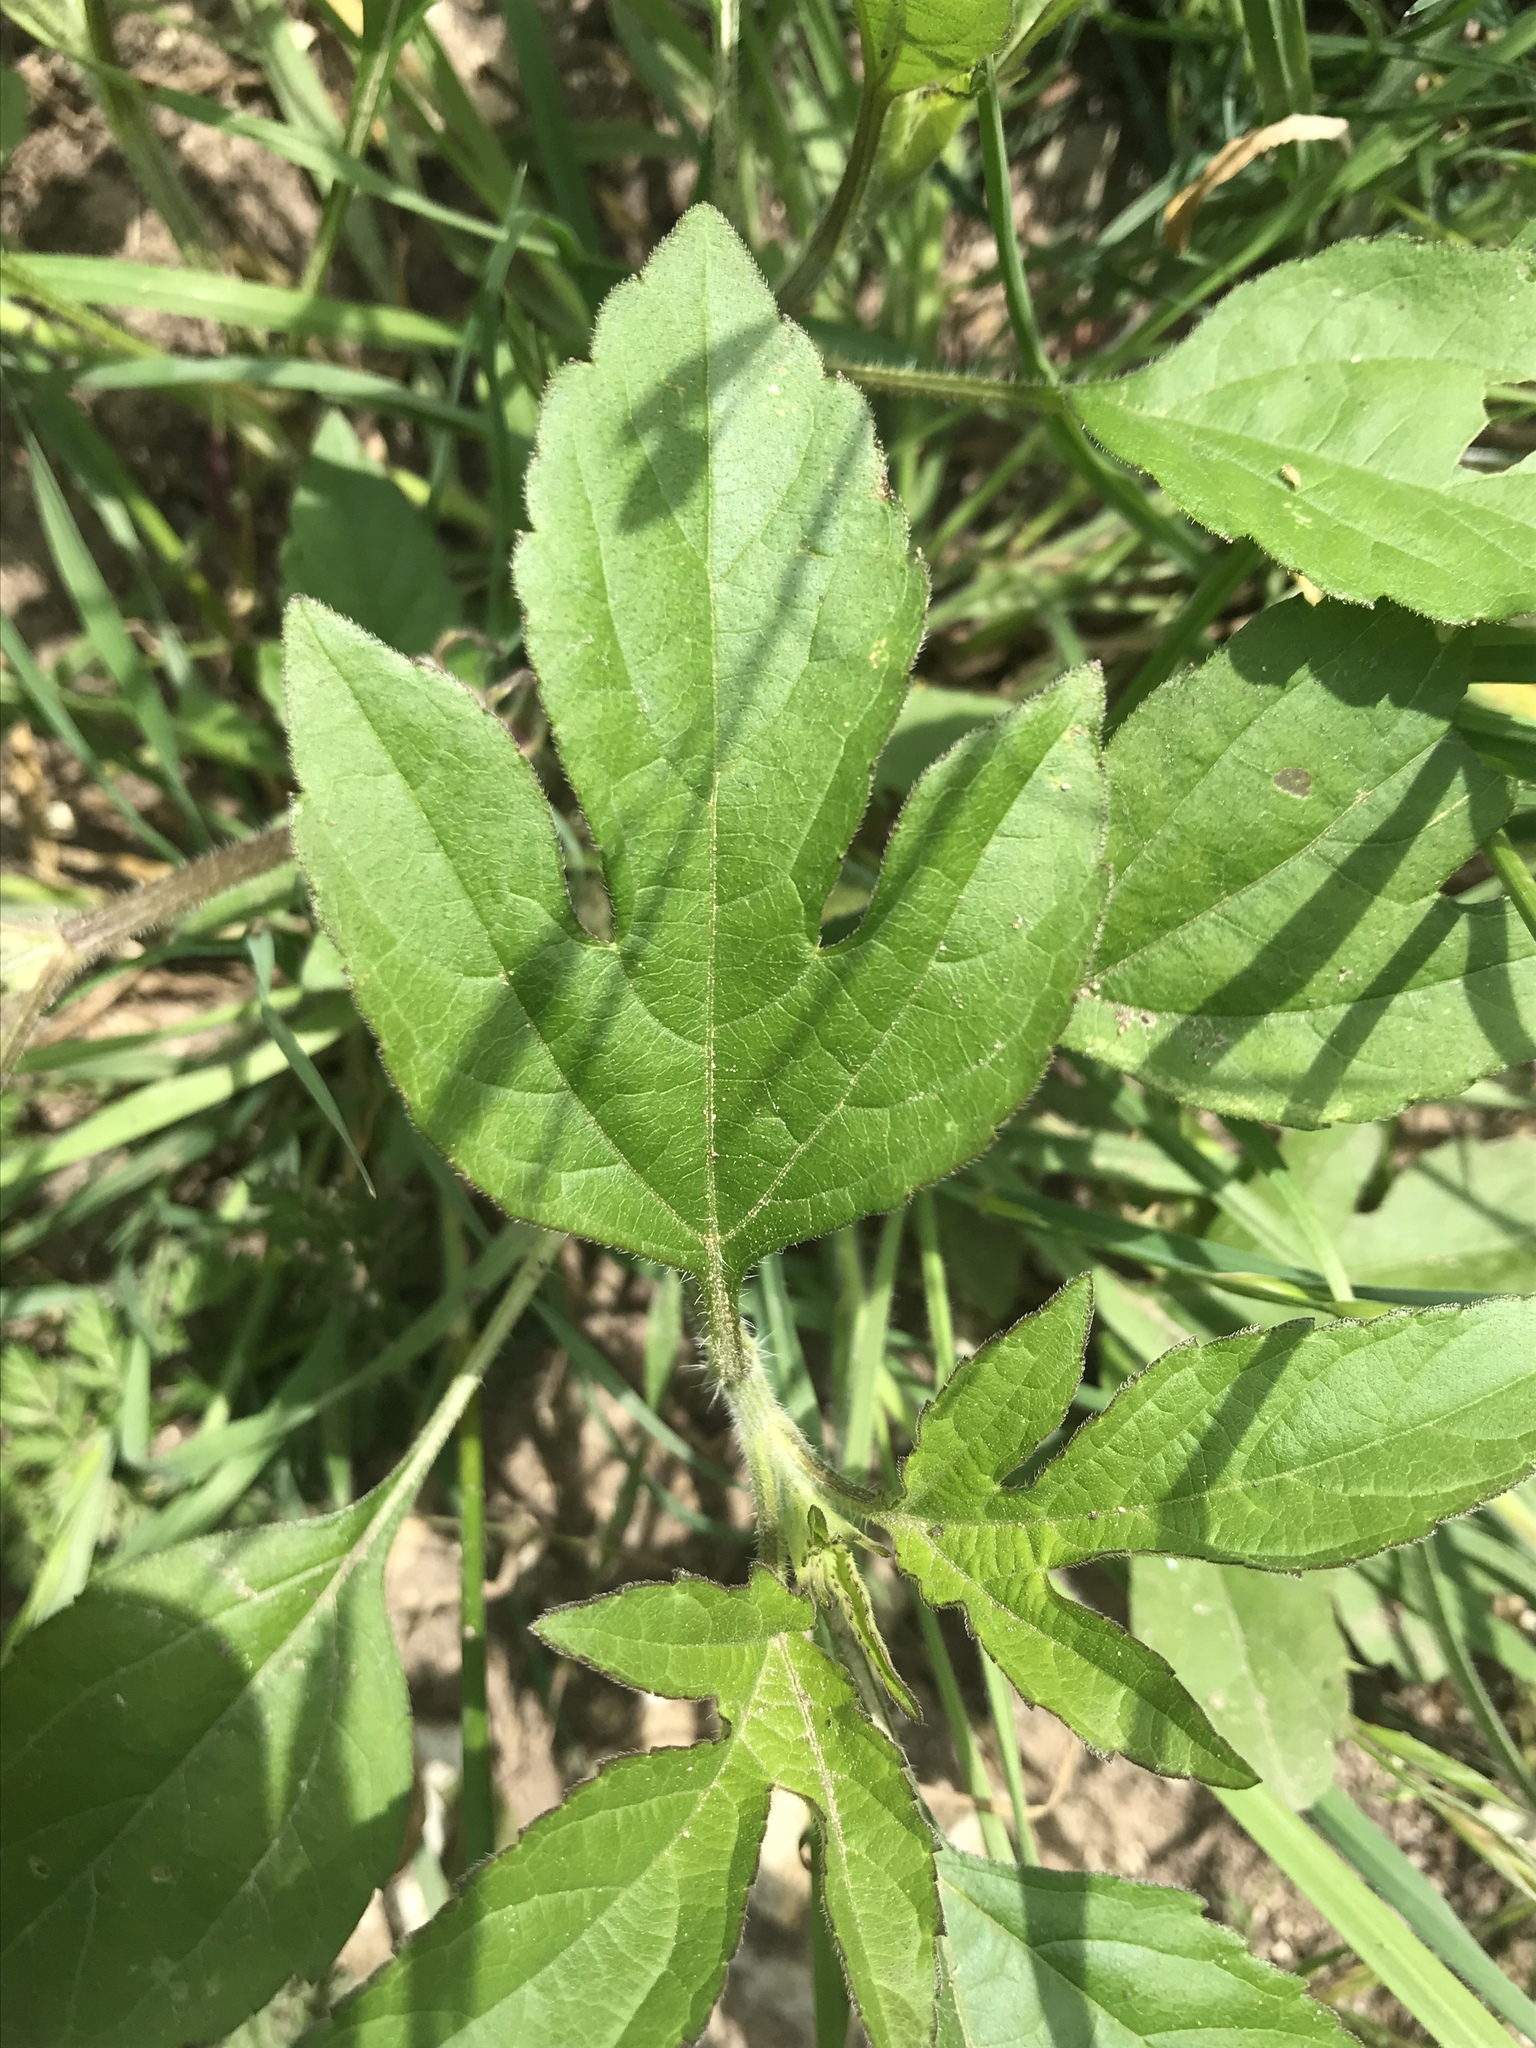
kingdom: Plantae
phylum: Tracheophyta
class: Magnoliopsida
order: Asterales
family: Asteraceae
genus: Ambrosia
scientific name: Ambrosia trifida
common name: Giant ragweed
